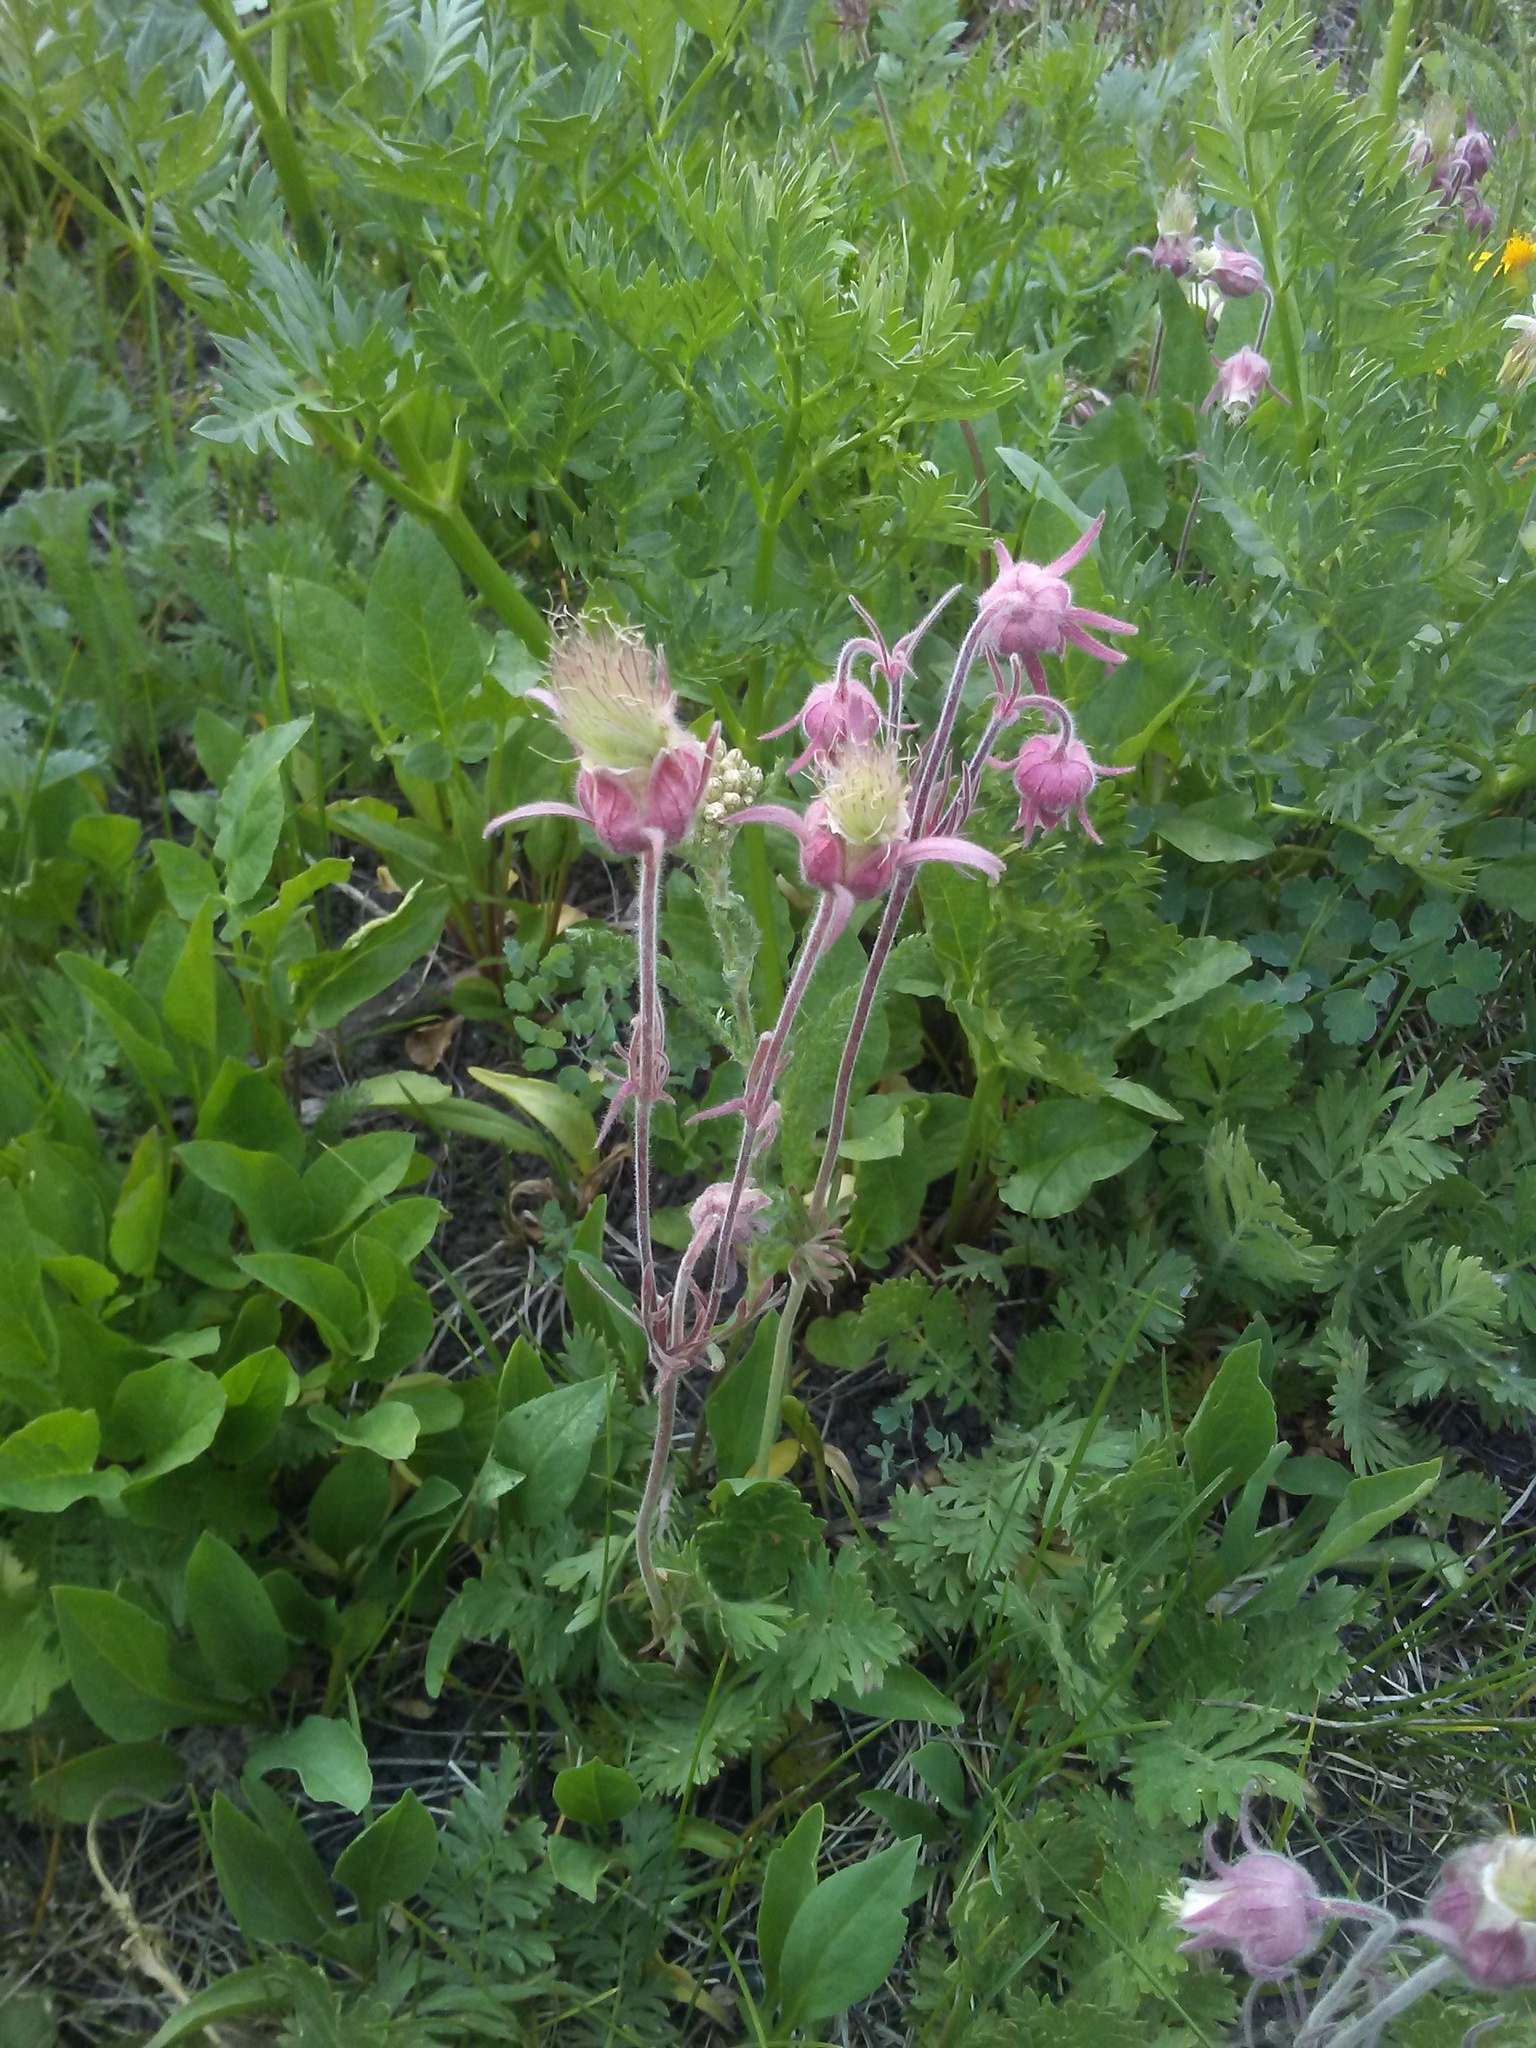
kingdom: Plantae
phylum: Tracheophyta
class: Magnoliopsida
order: Rosales
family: Rosaceae
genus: Geum
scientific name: Geum triflorum
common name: Old man's whiskers
